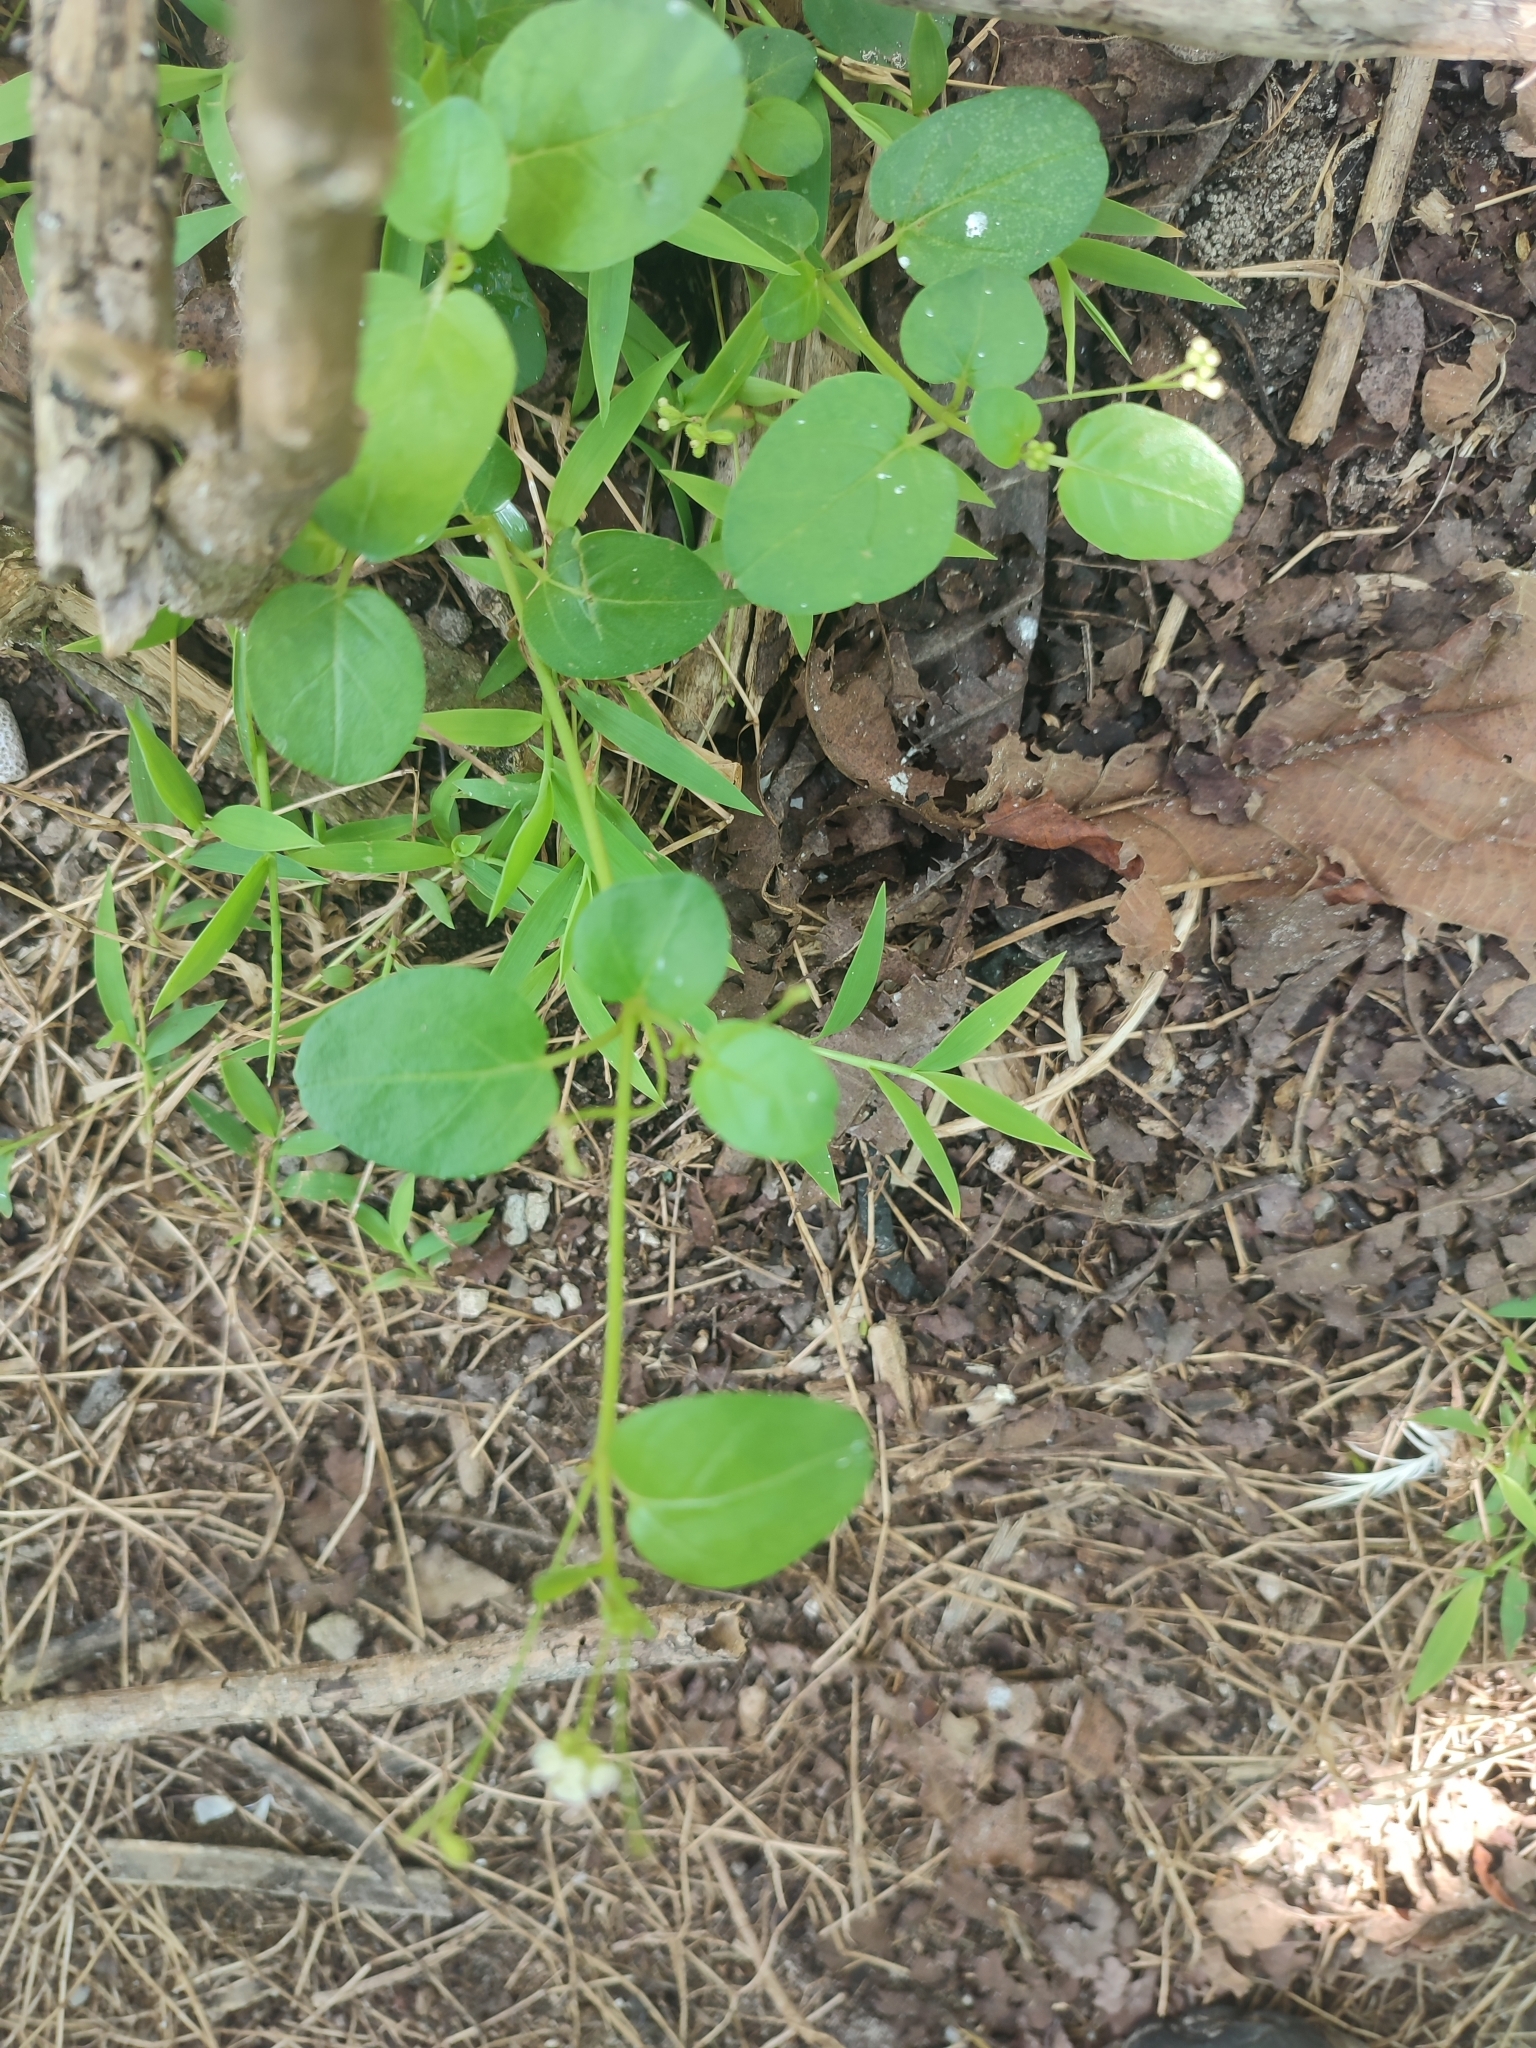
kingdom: Plantae
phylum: Tracheophyta
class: Magnoliopsida
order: Caryophyllales
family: Nyctaginaceae
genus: Boerhavia
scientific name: Boerhavia repens
